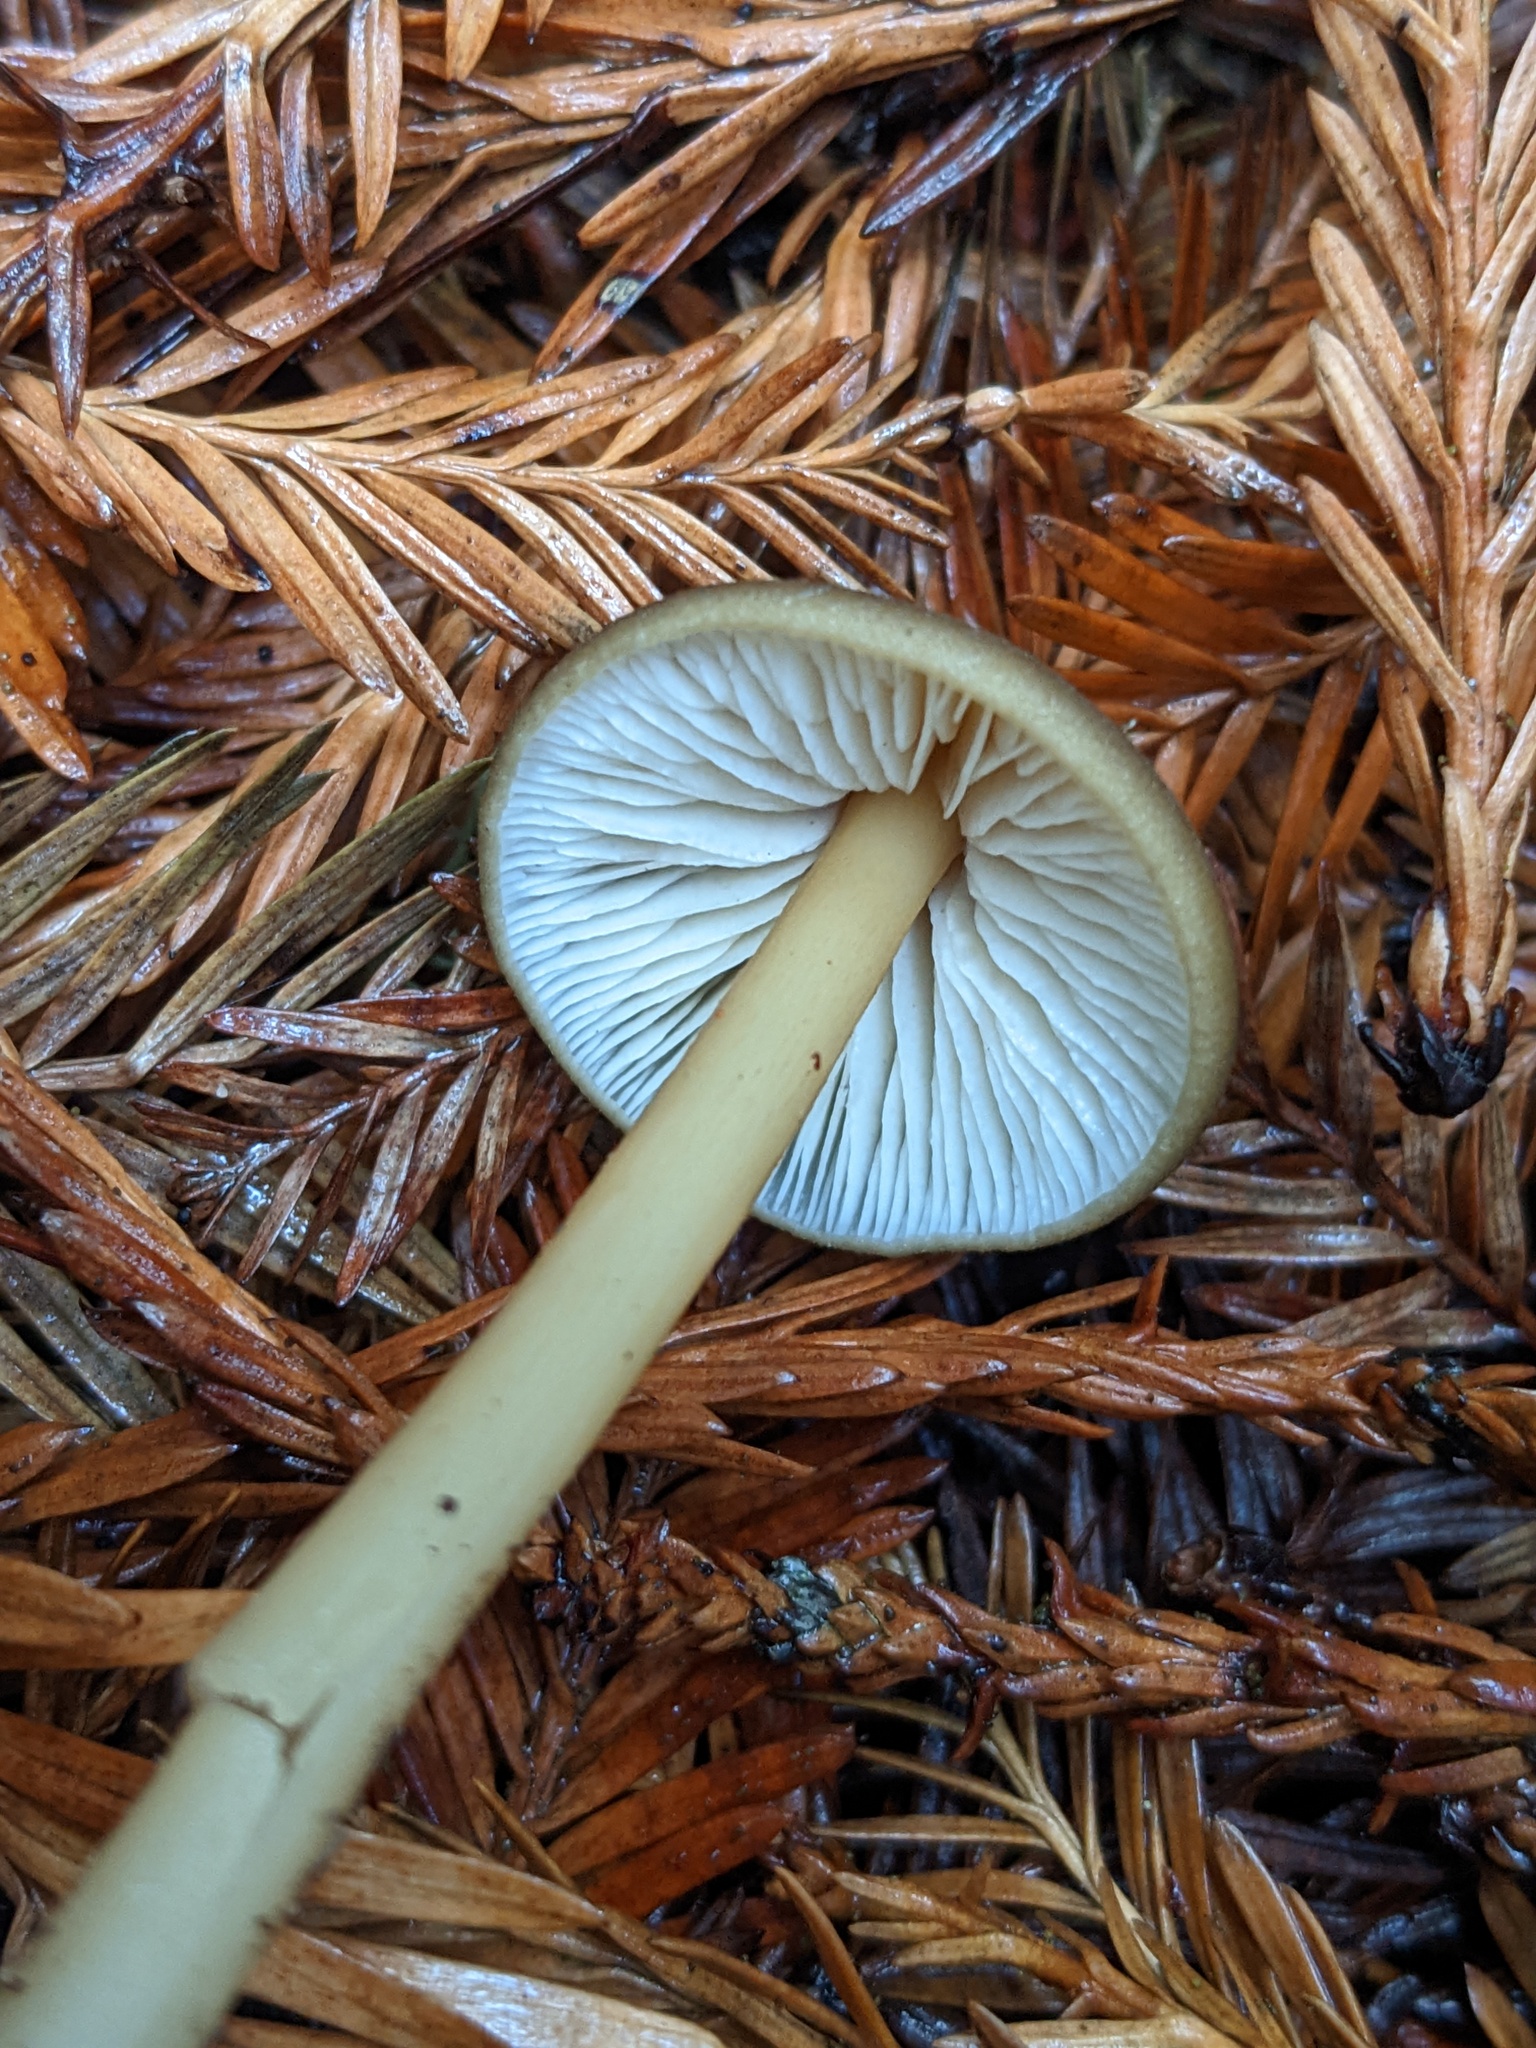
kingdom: Fungi
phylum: Basidiomycota
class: Agaricomycetes
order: Agaricales
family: Entolomataceae
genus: Entoloma
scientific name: Entoloma formosum
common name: Pretty pinkgill
